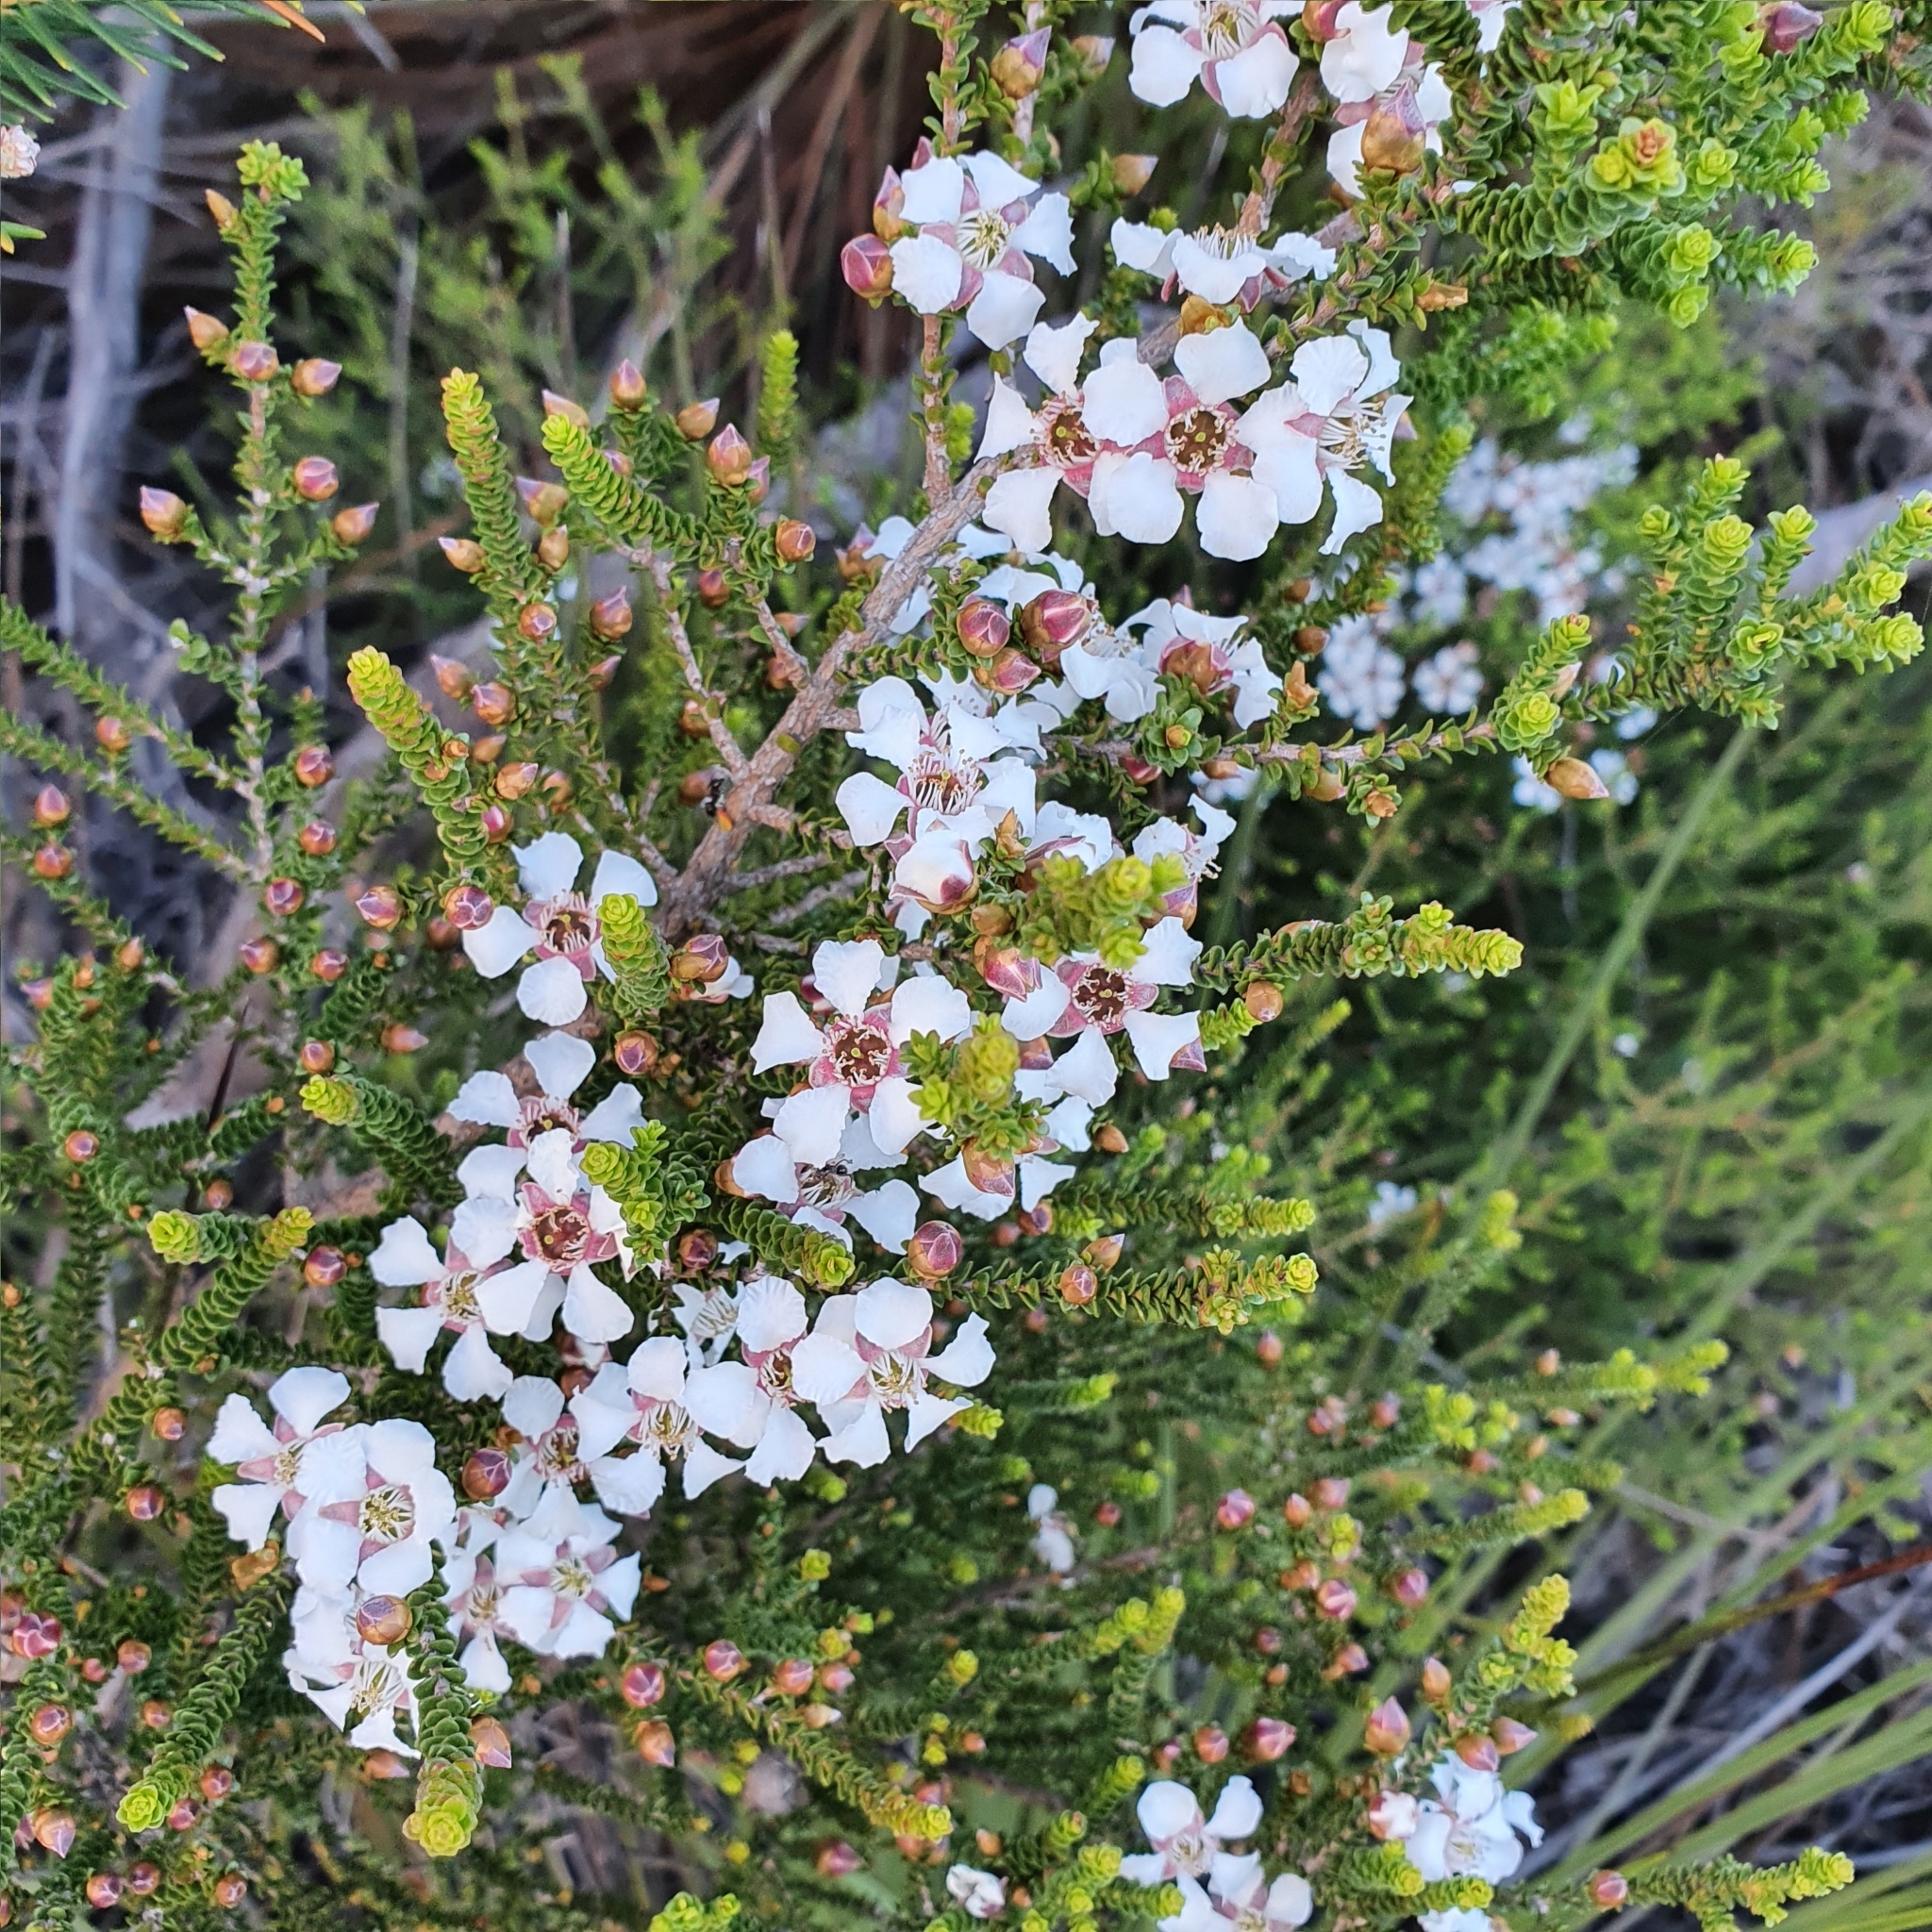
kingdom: Plantae
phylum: Tracheophyta
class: Magnoliopsida
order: Myrtales
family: Myrtaceae
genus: Leptospermum
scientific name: Leptospermum epacridoideum
